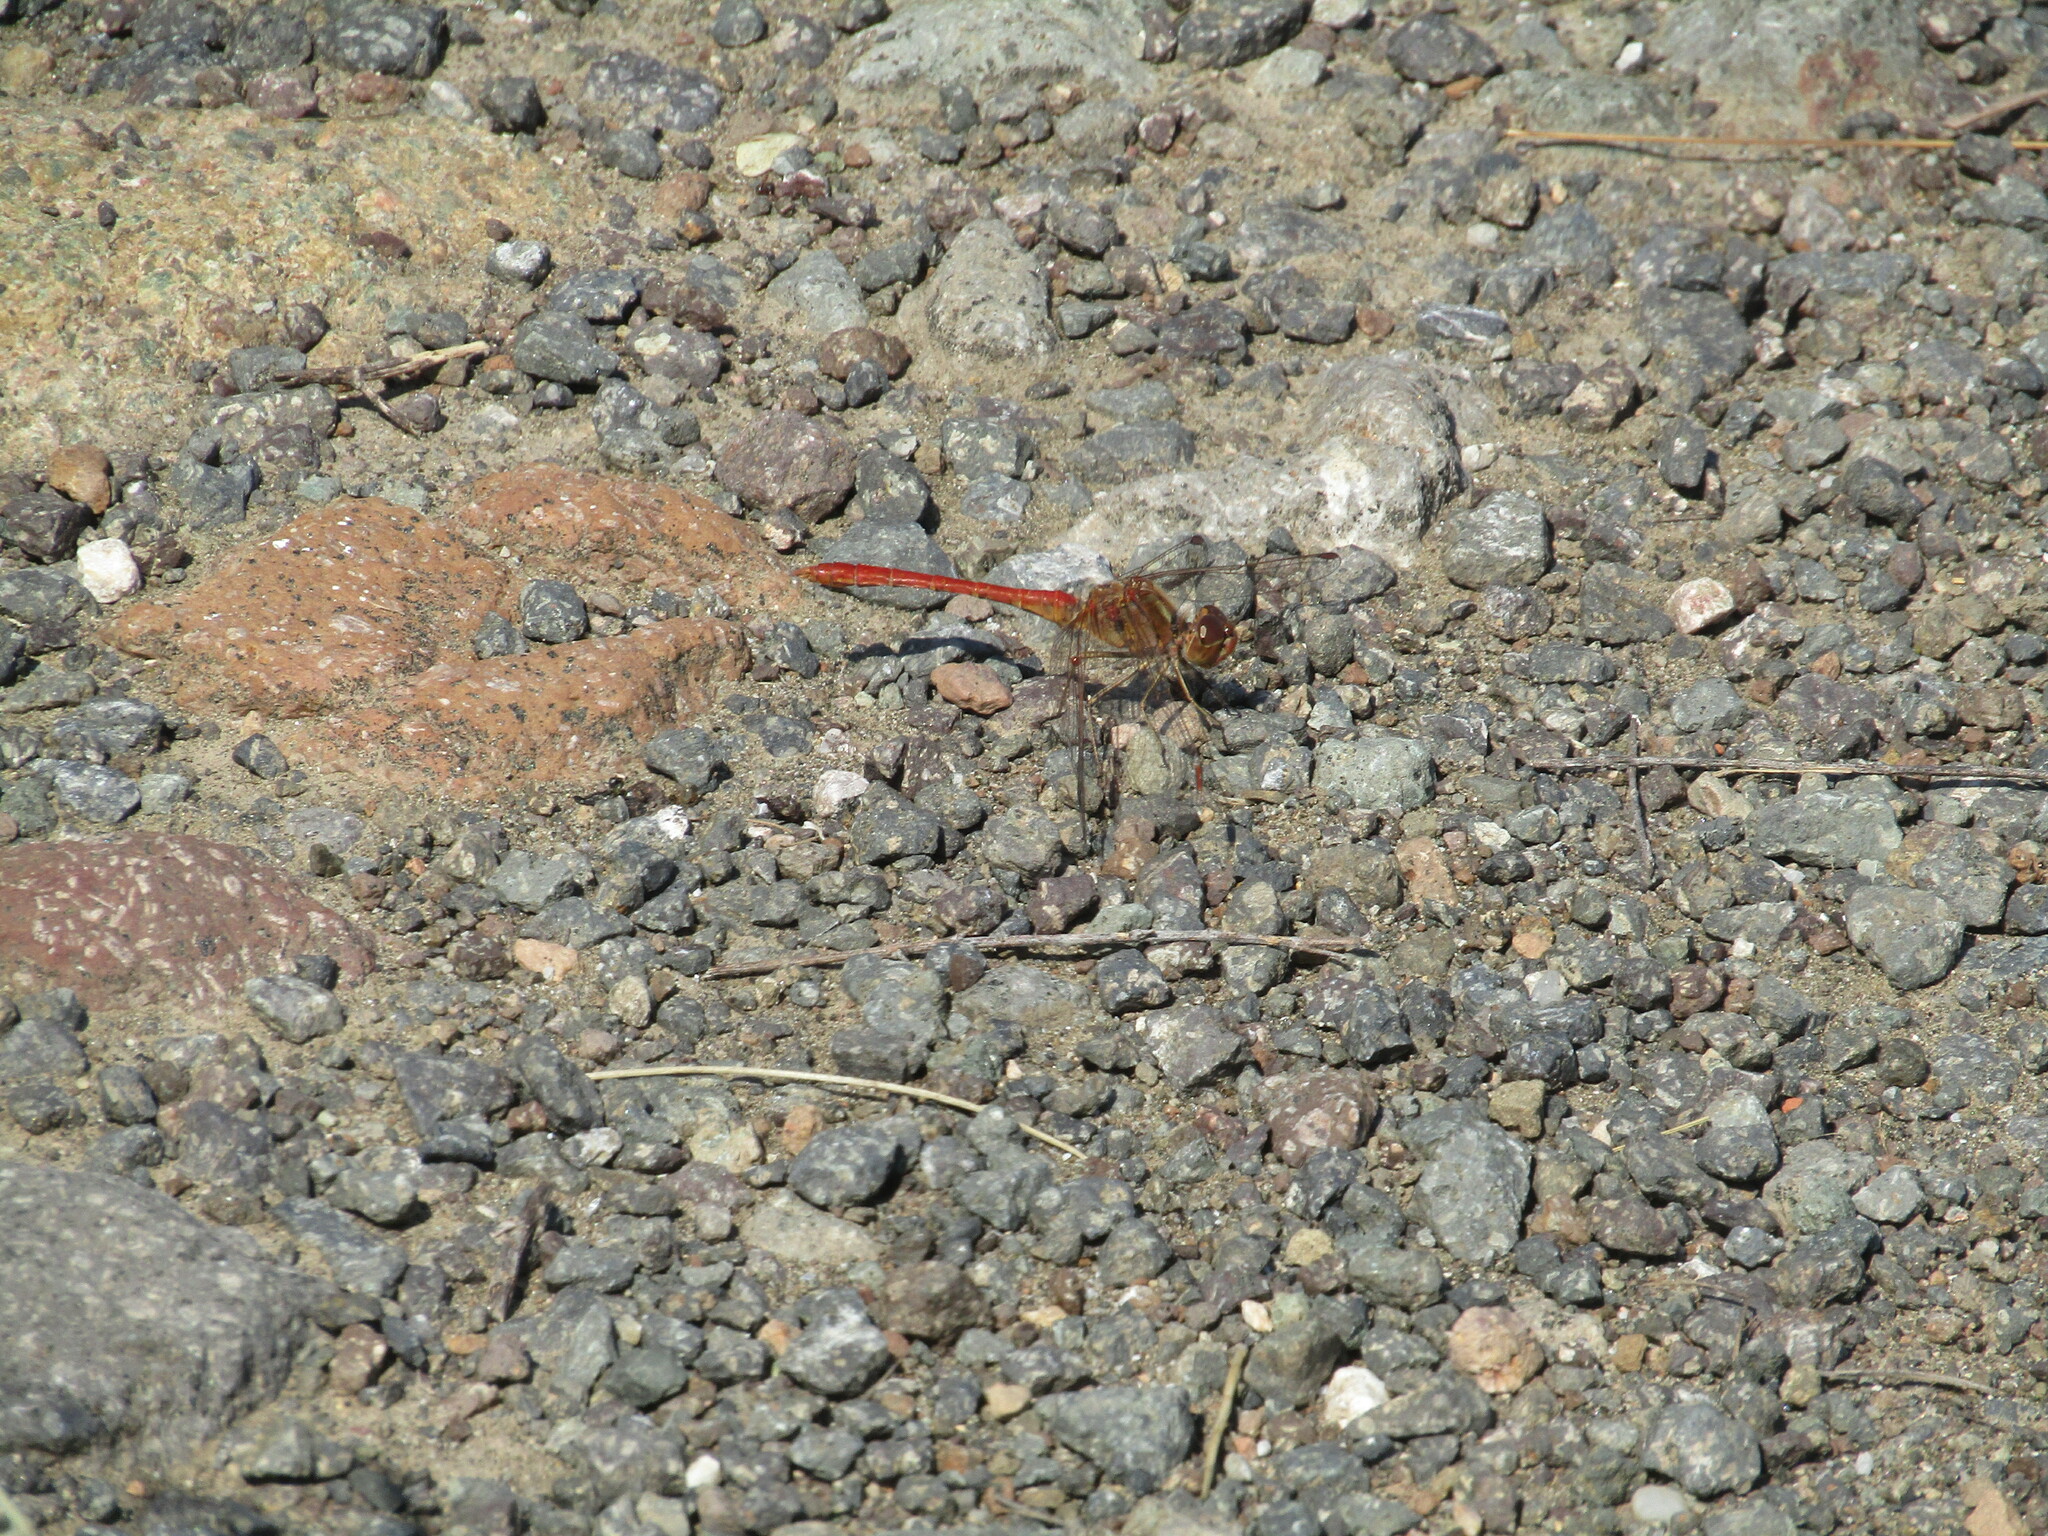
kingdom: Animalia
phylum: Arthropoda
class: Insecta
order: Odonata
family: Libellulidae
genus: Sympetrum
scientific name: Sympetrum meridionale
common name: Southern darter
